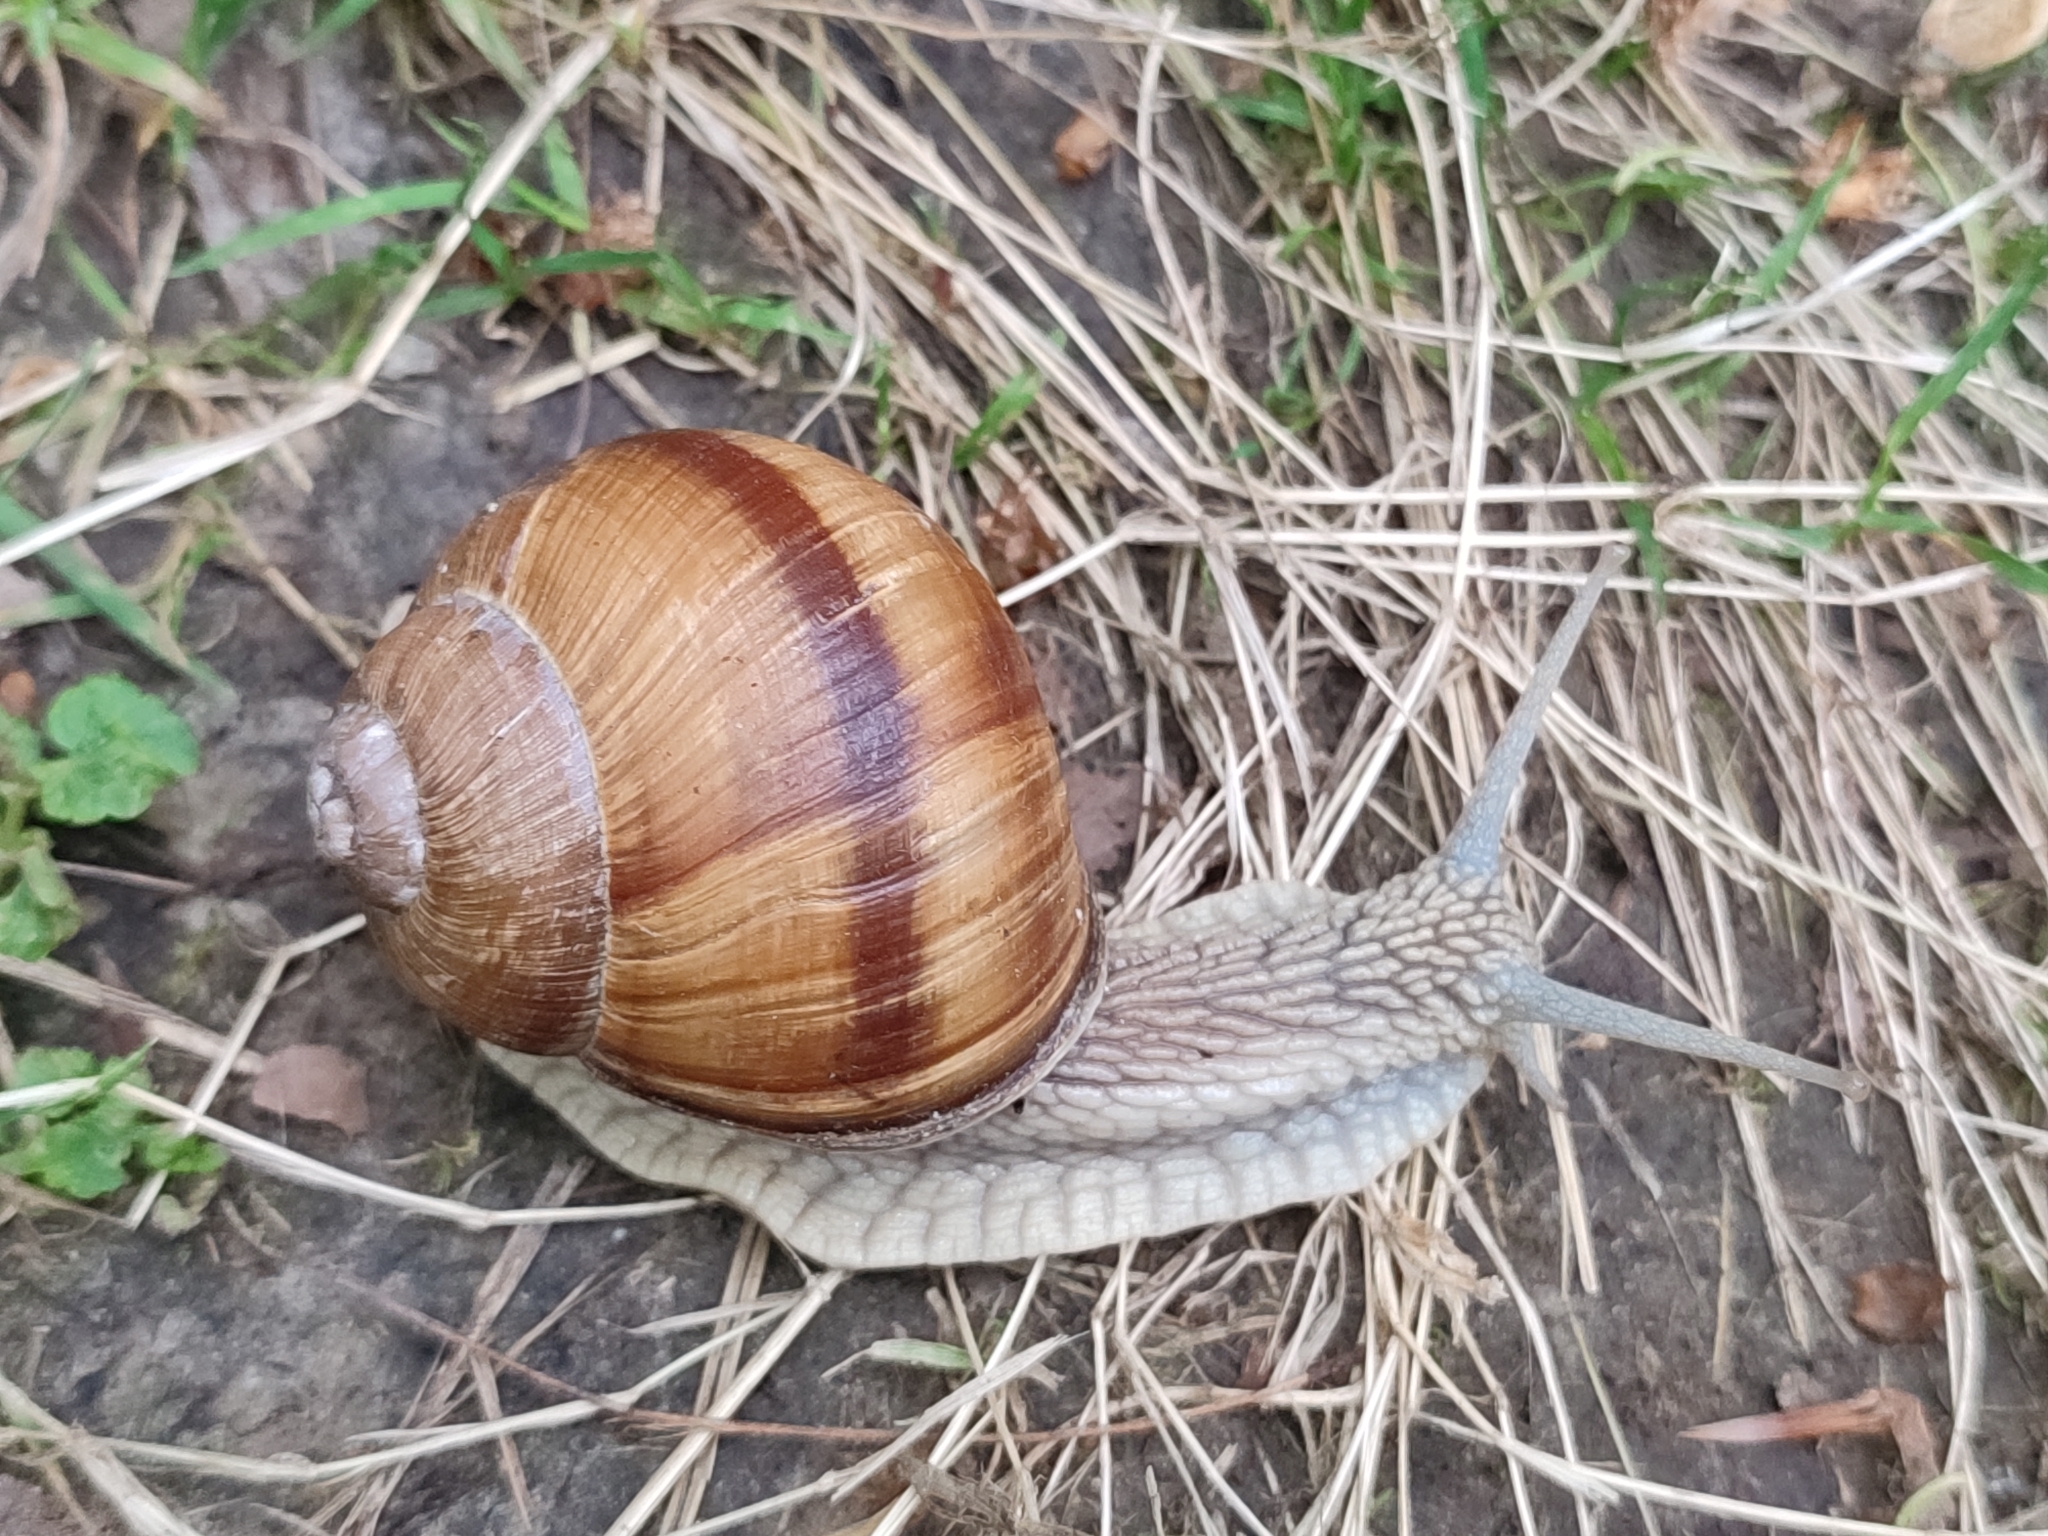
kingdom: Animalia
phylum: Mollusca
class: Gastropoda
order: Stylommatophora
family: Helicidae
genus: Helix
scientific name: Helix pomatia
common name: Roman snail
